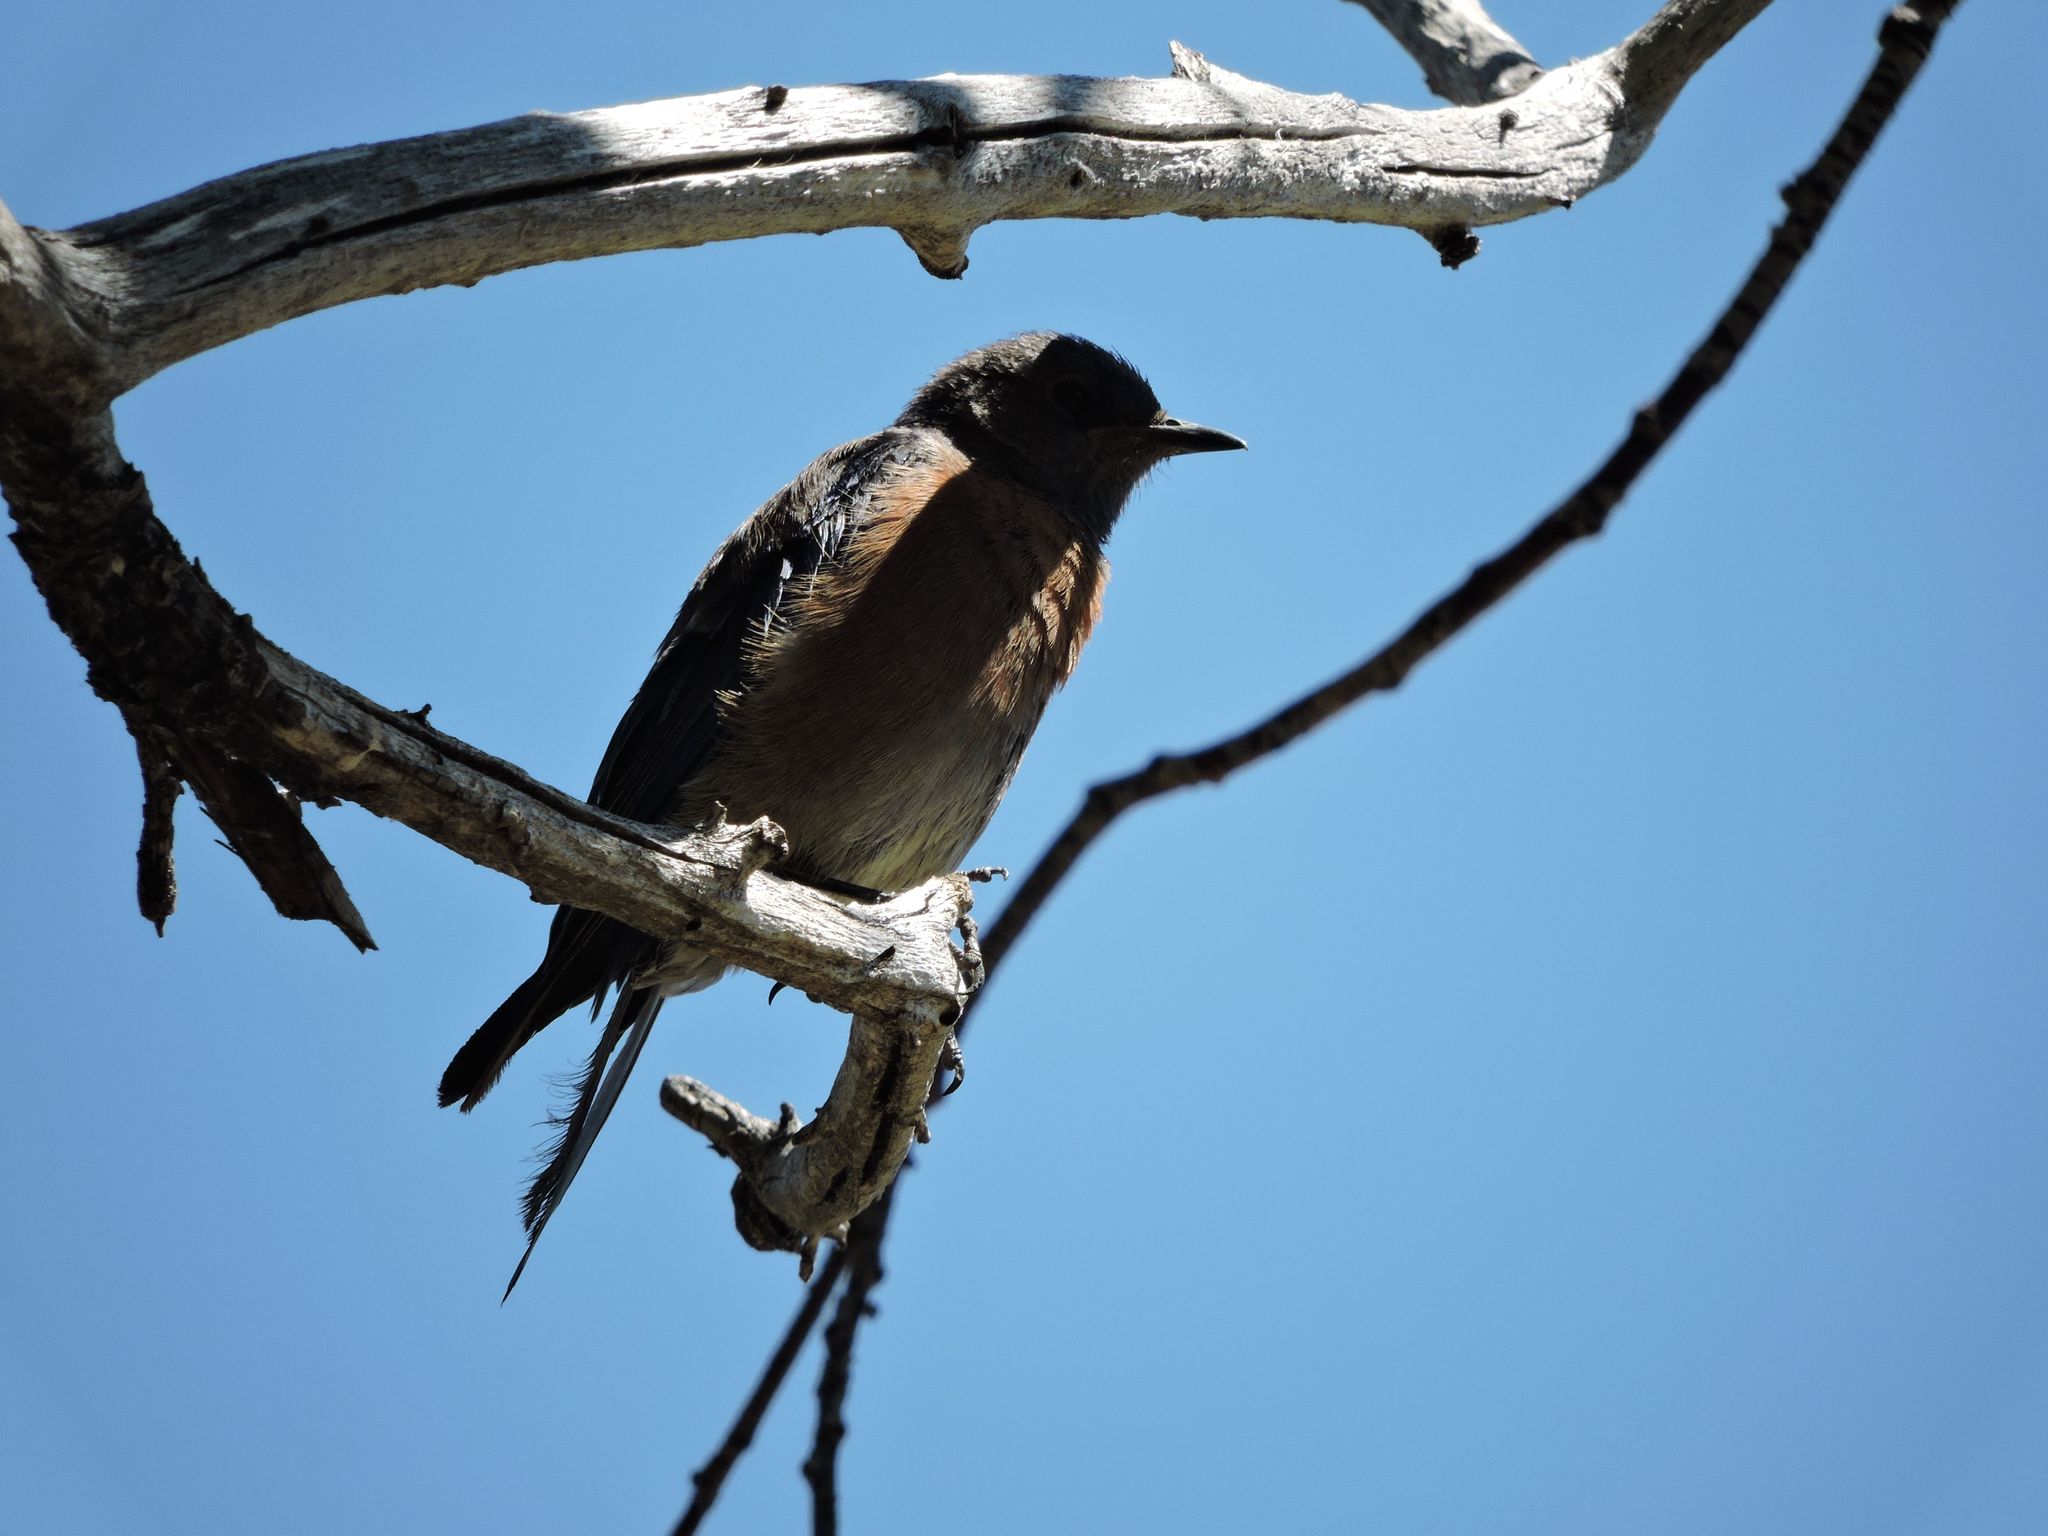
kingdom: Animalia
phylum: Chordata
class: Aves
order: Passeriformes
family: Turdidae
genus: Sialia
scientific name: Sialia mexicana
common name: Western bluebird
